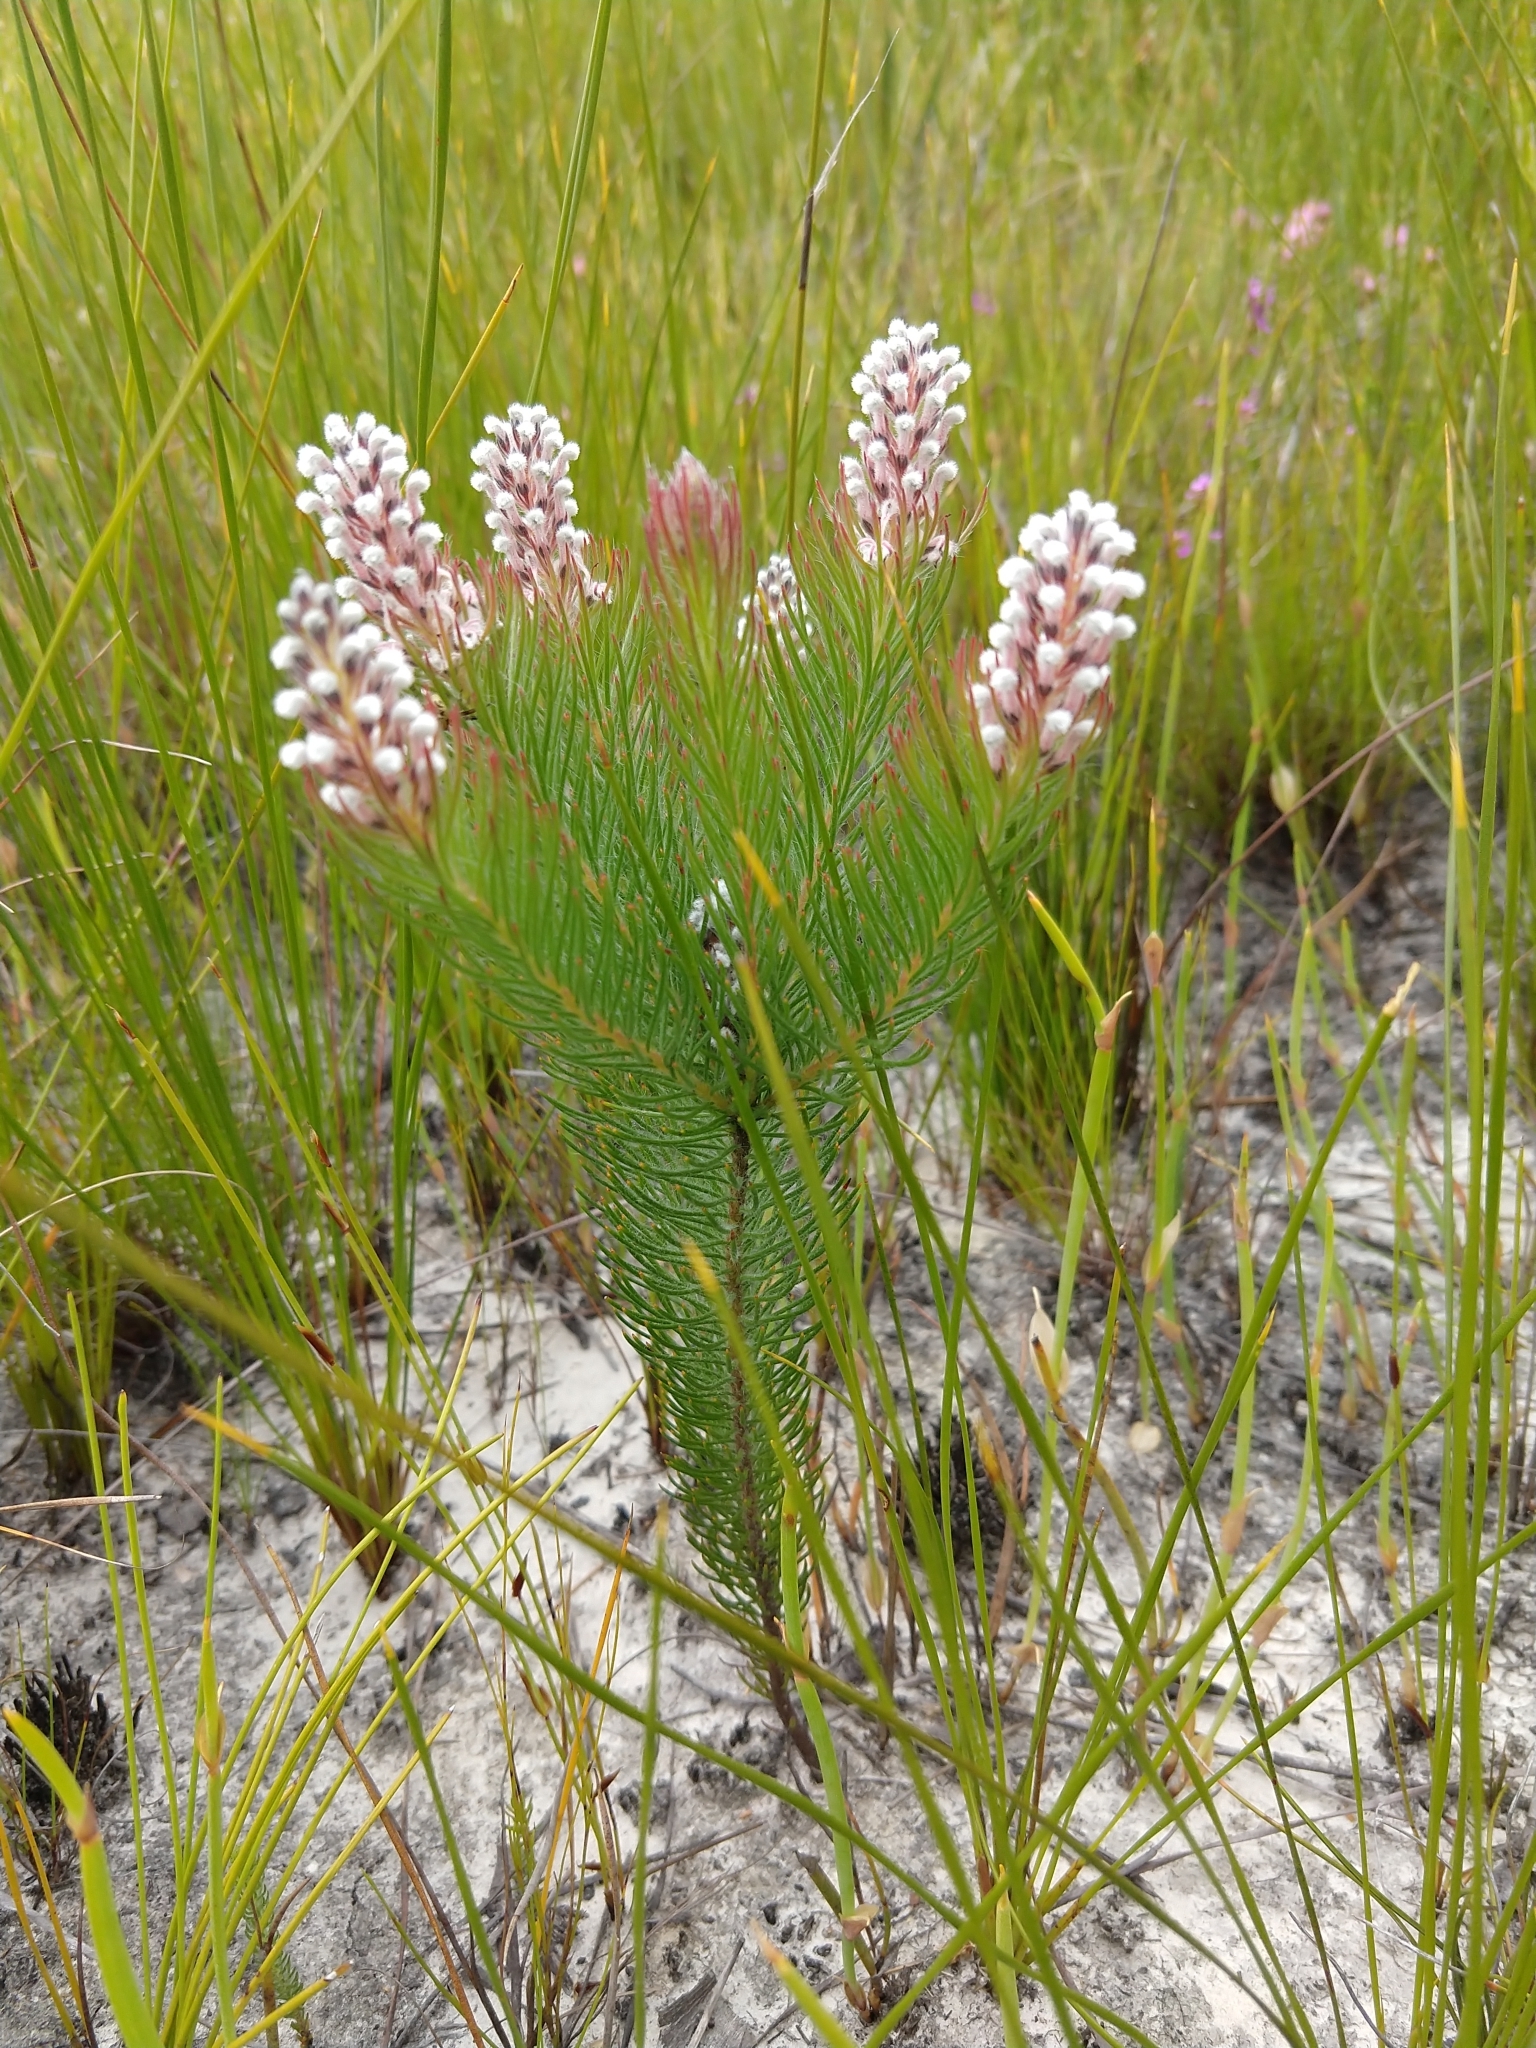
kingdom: Plantae
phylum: Tracheophyta
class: Magnoliopsida
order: Proteales
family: Proteaceae
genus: Spatalla
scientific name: Spatalla curvifolia
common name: White-stalked spoon
